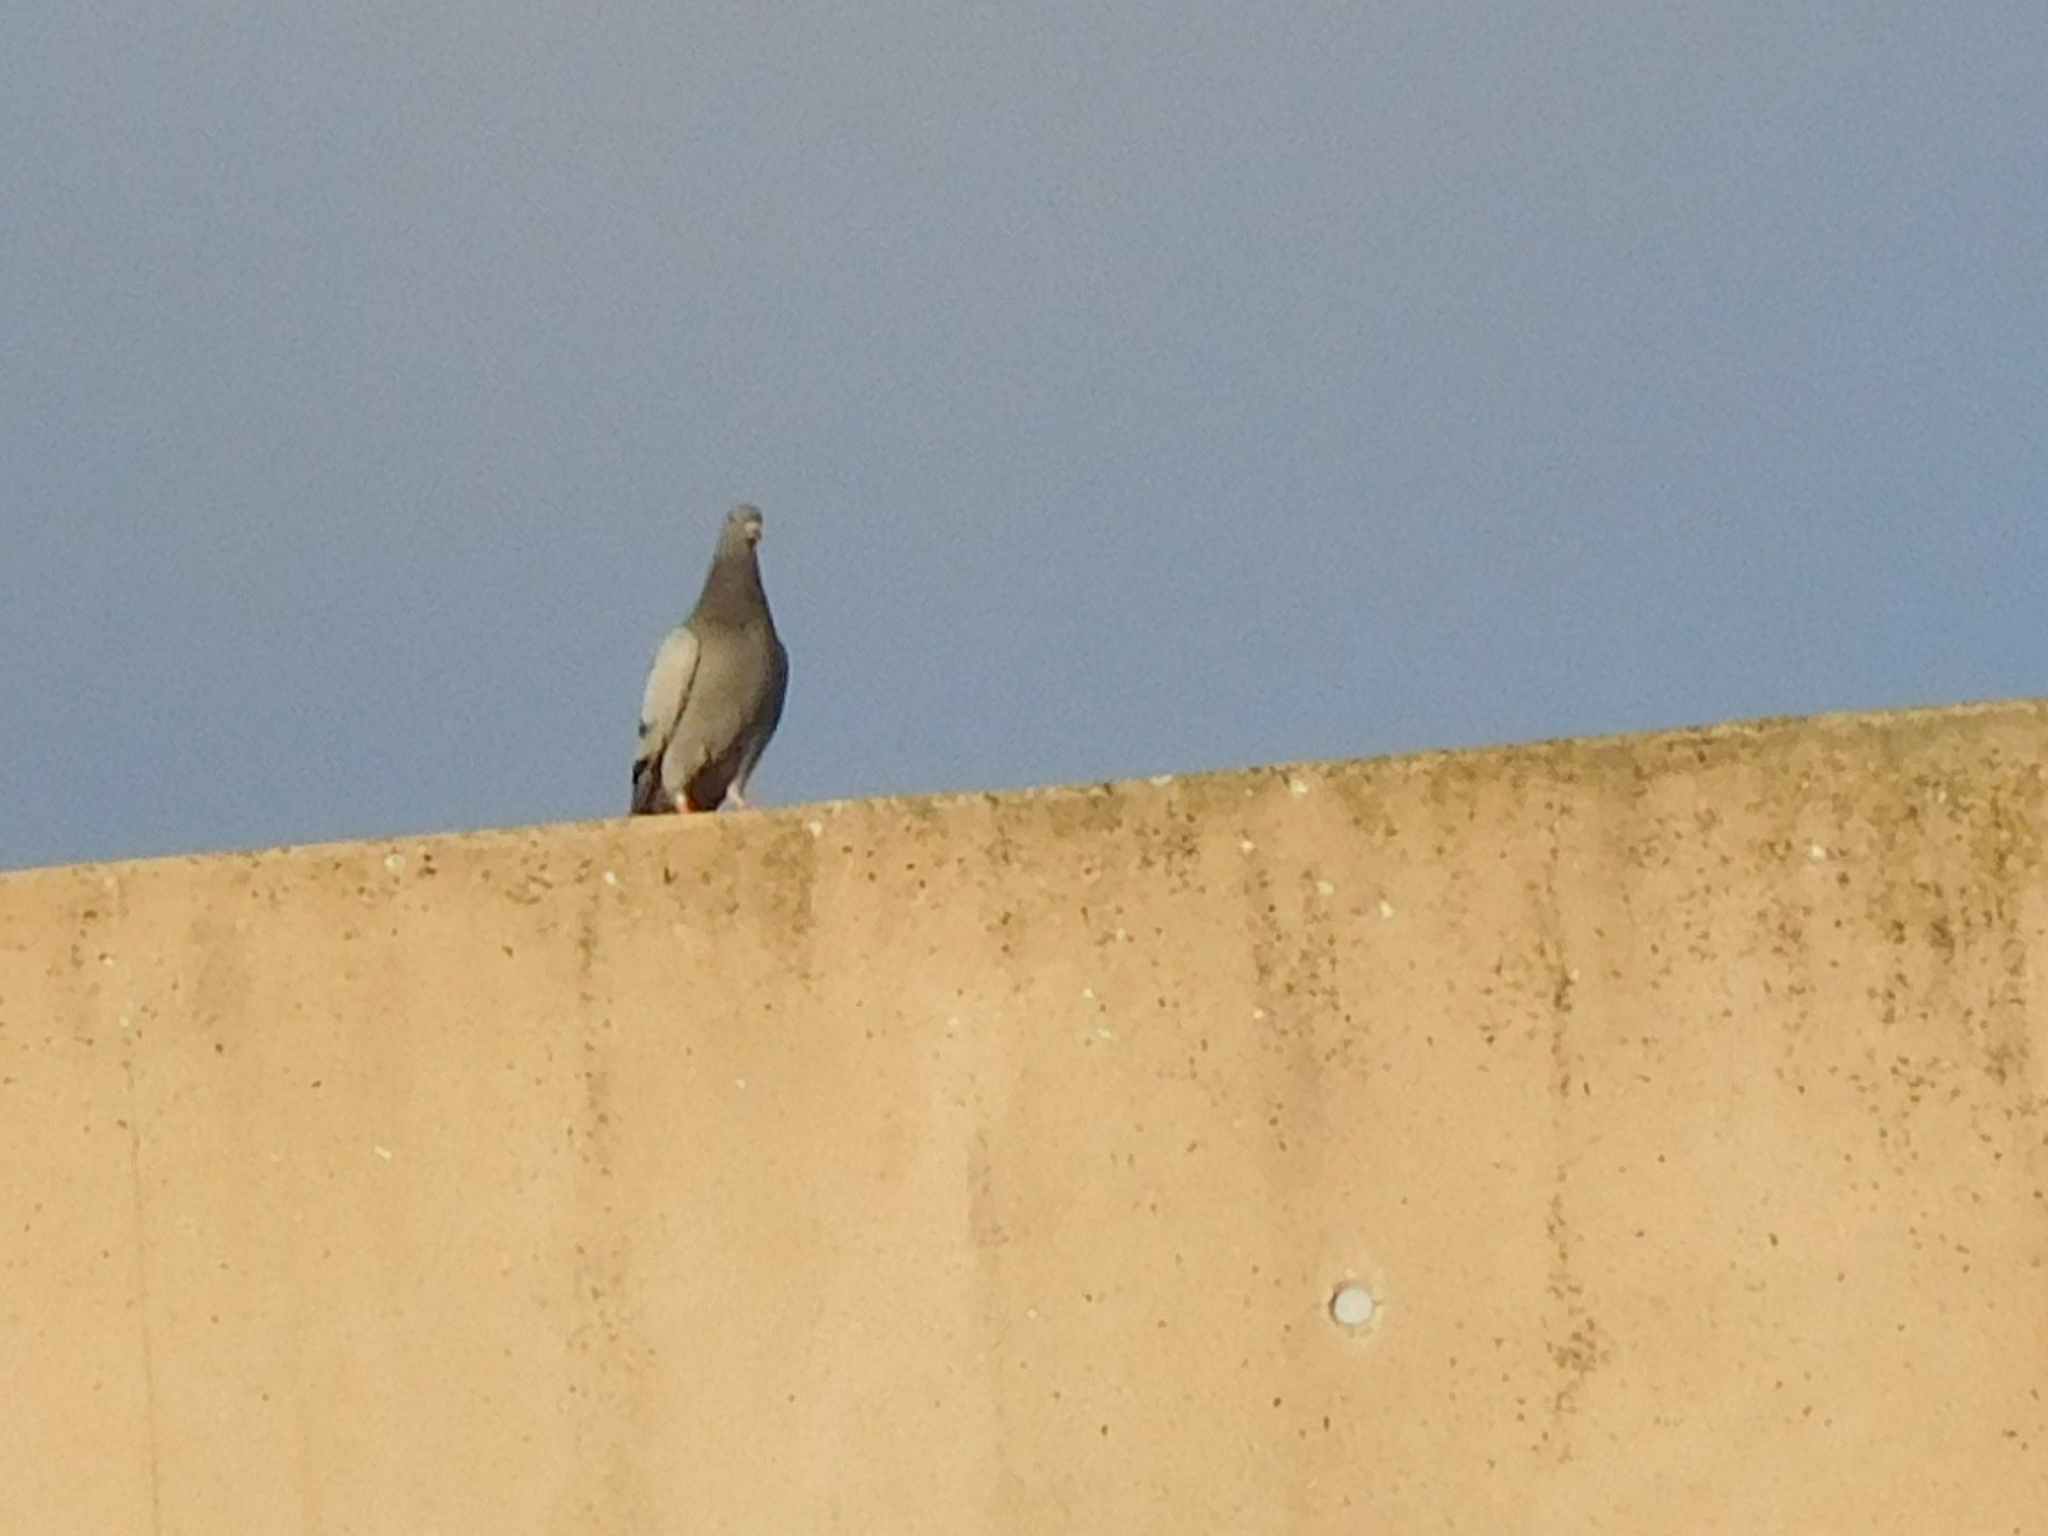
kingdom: Animalia
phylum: Chordata
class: Aves
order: Columbiformes
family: Columbidae
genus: Columba
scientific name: Columba livia
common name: Rock pigeon
